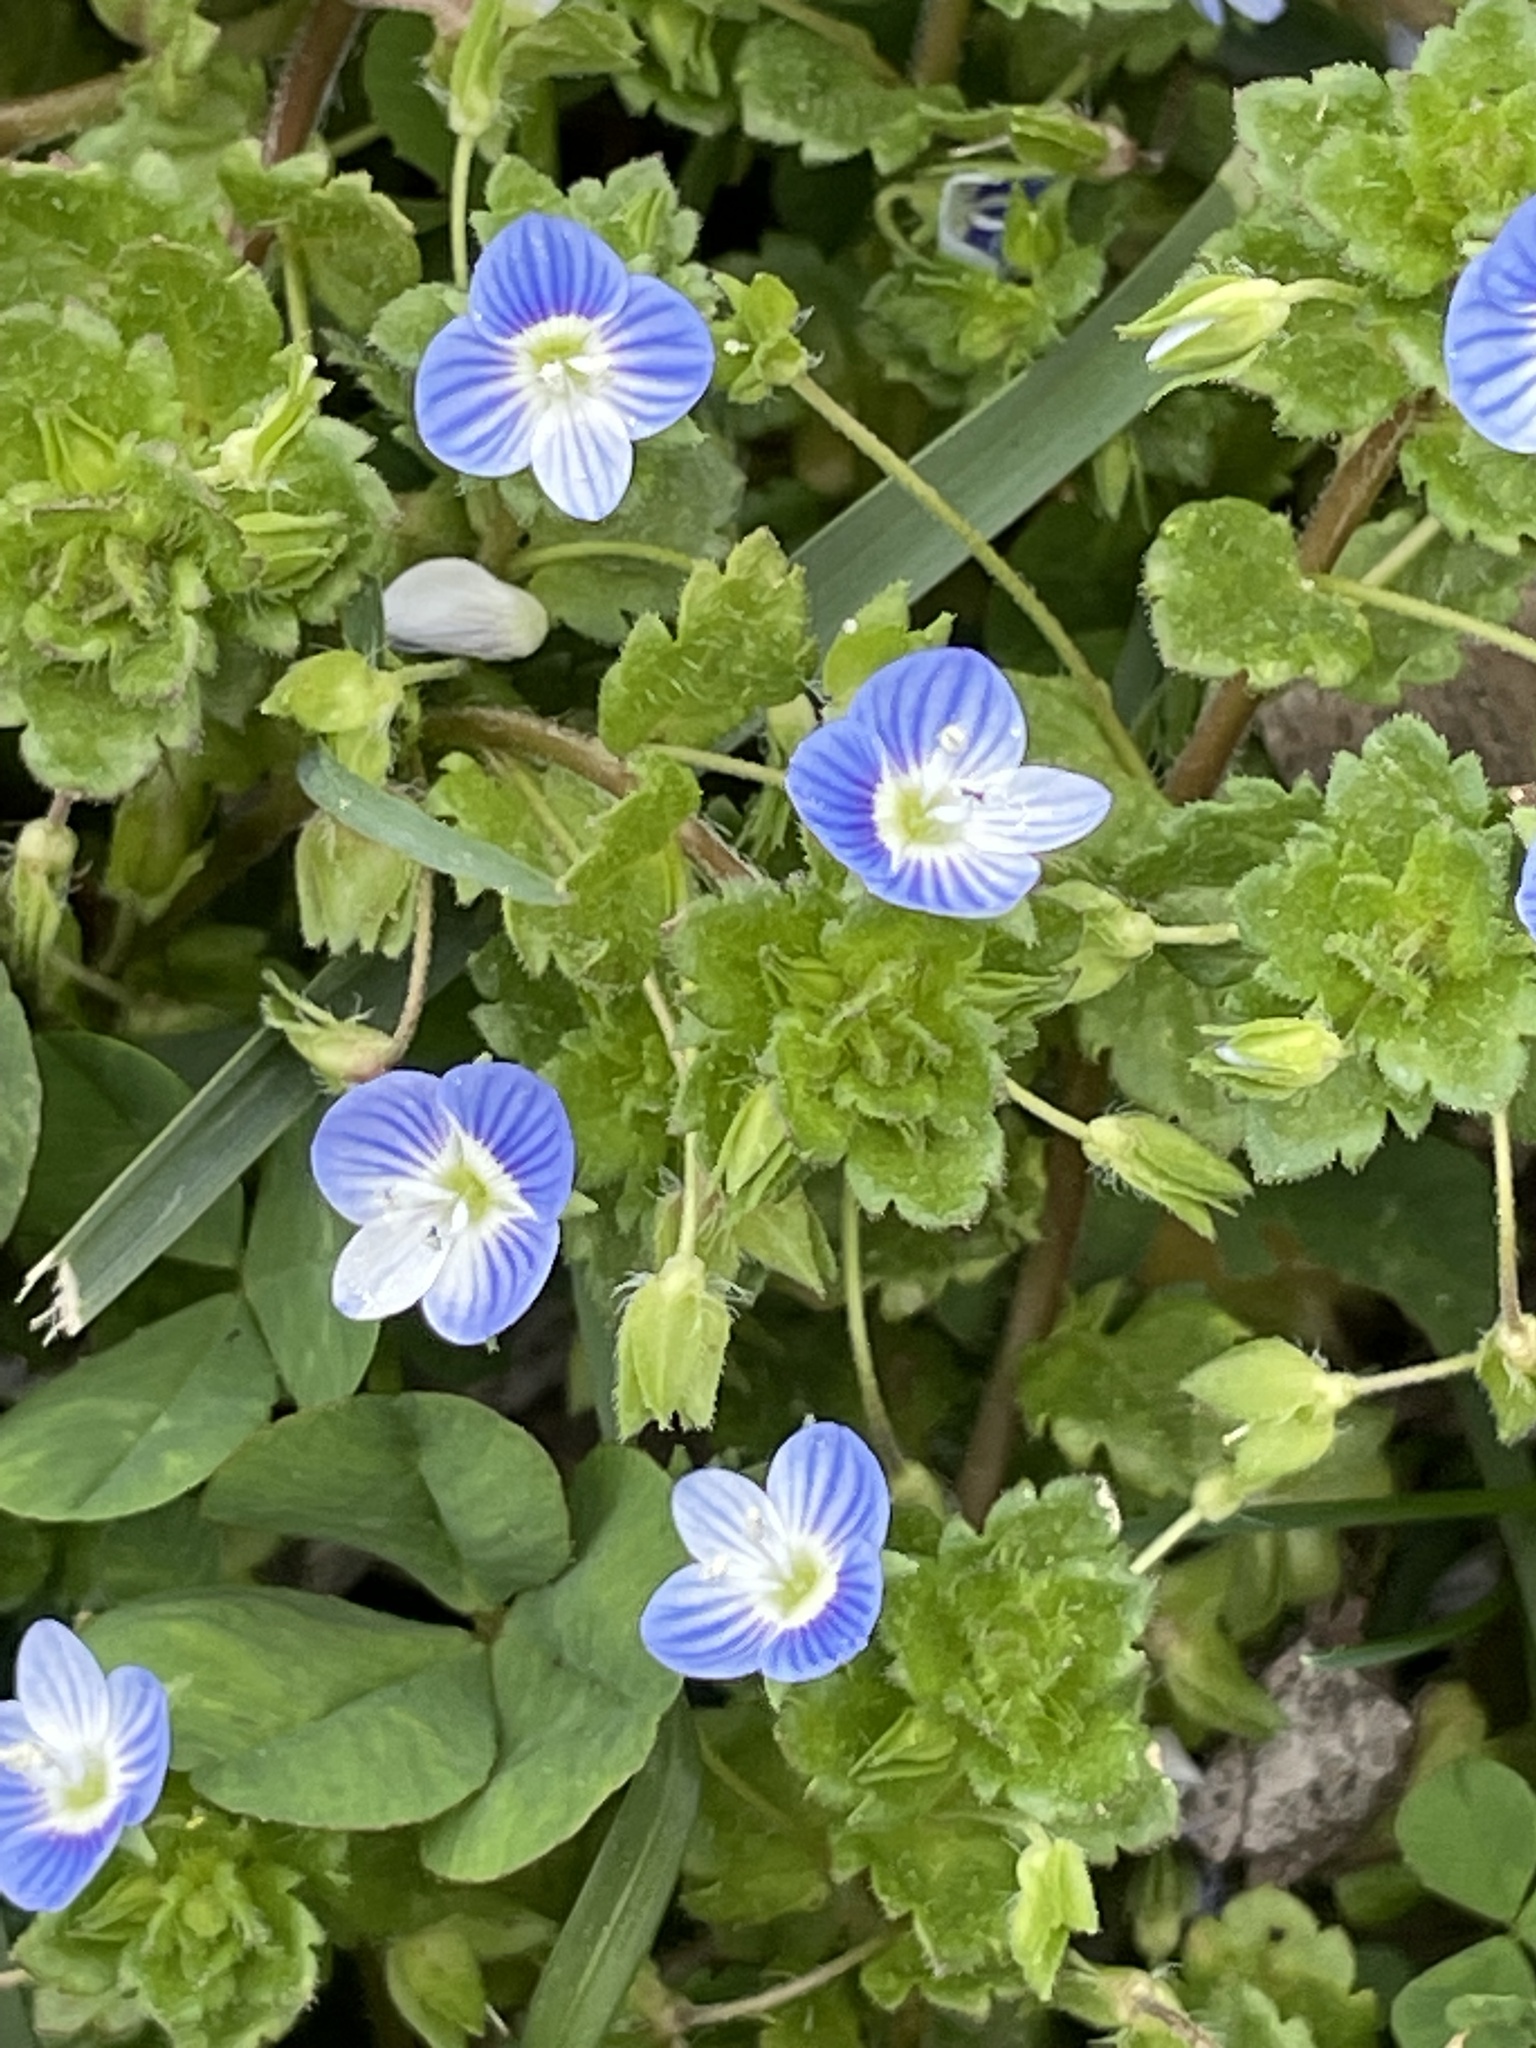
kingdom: Plantae
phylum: Tracheophyta
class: Magnoliopsida
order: Lamiales
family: Plantaginaceae
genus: Veronica
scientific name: Veronica persica
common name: Common field-speedwell
